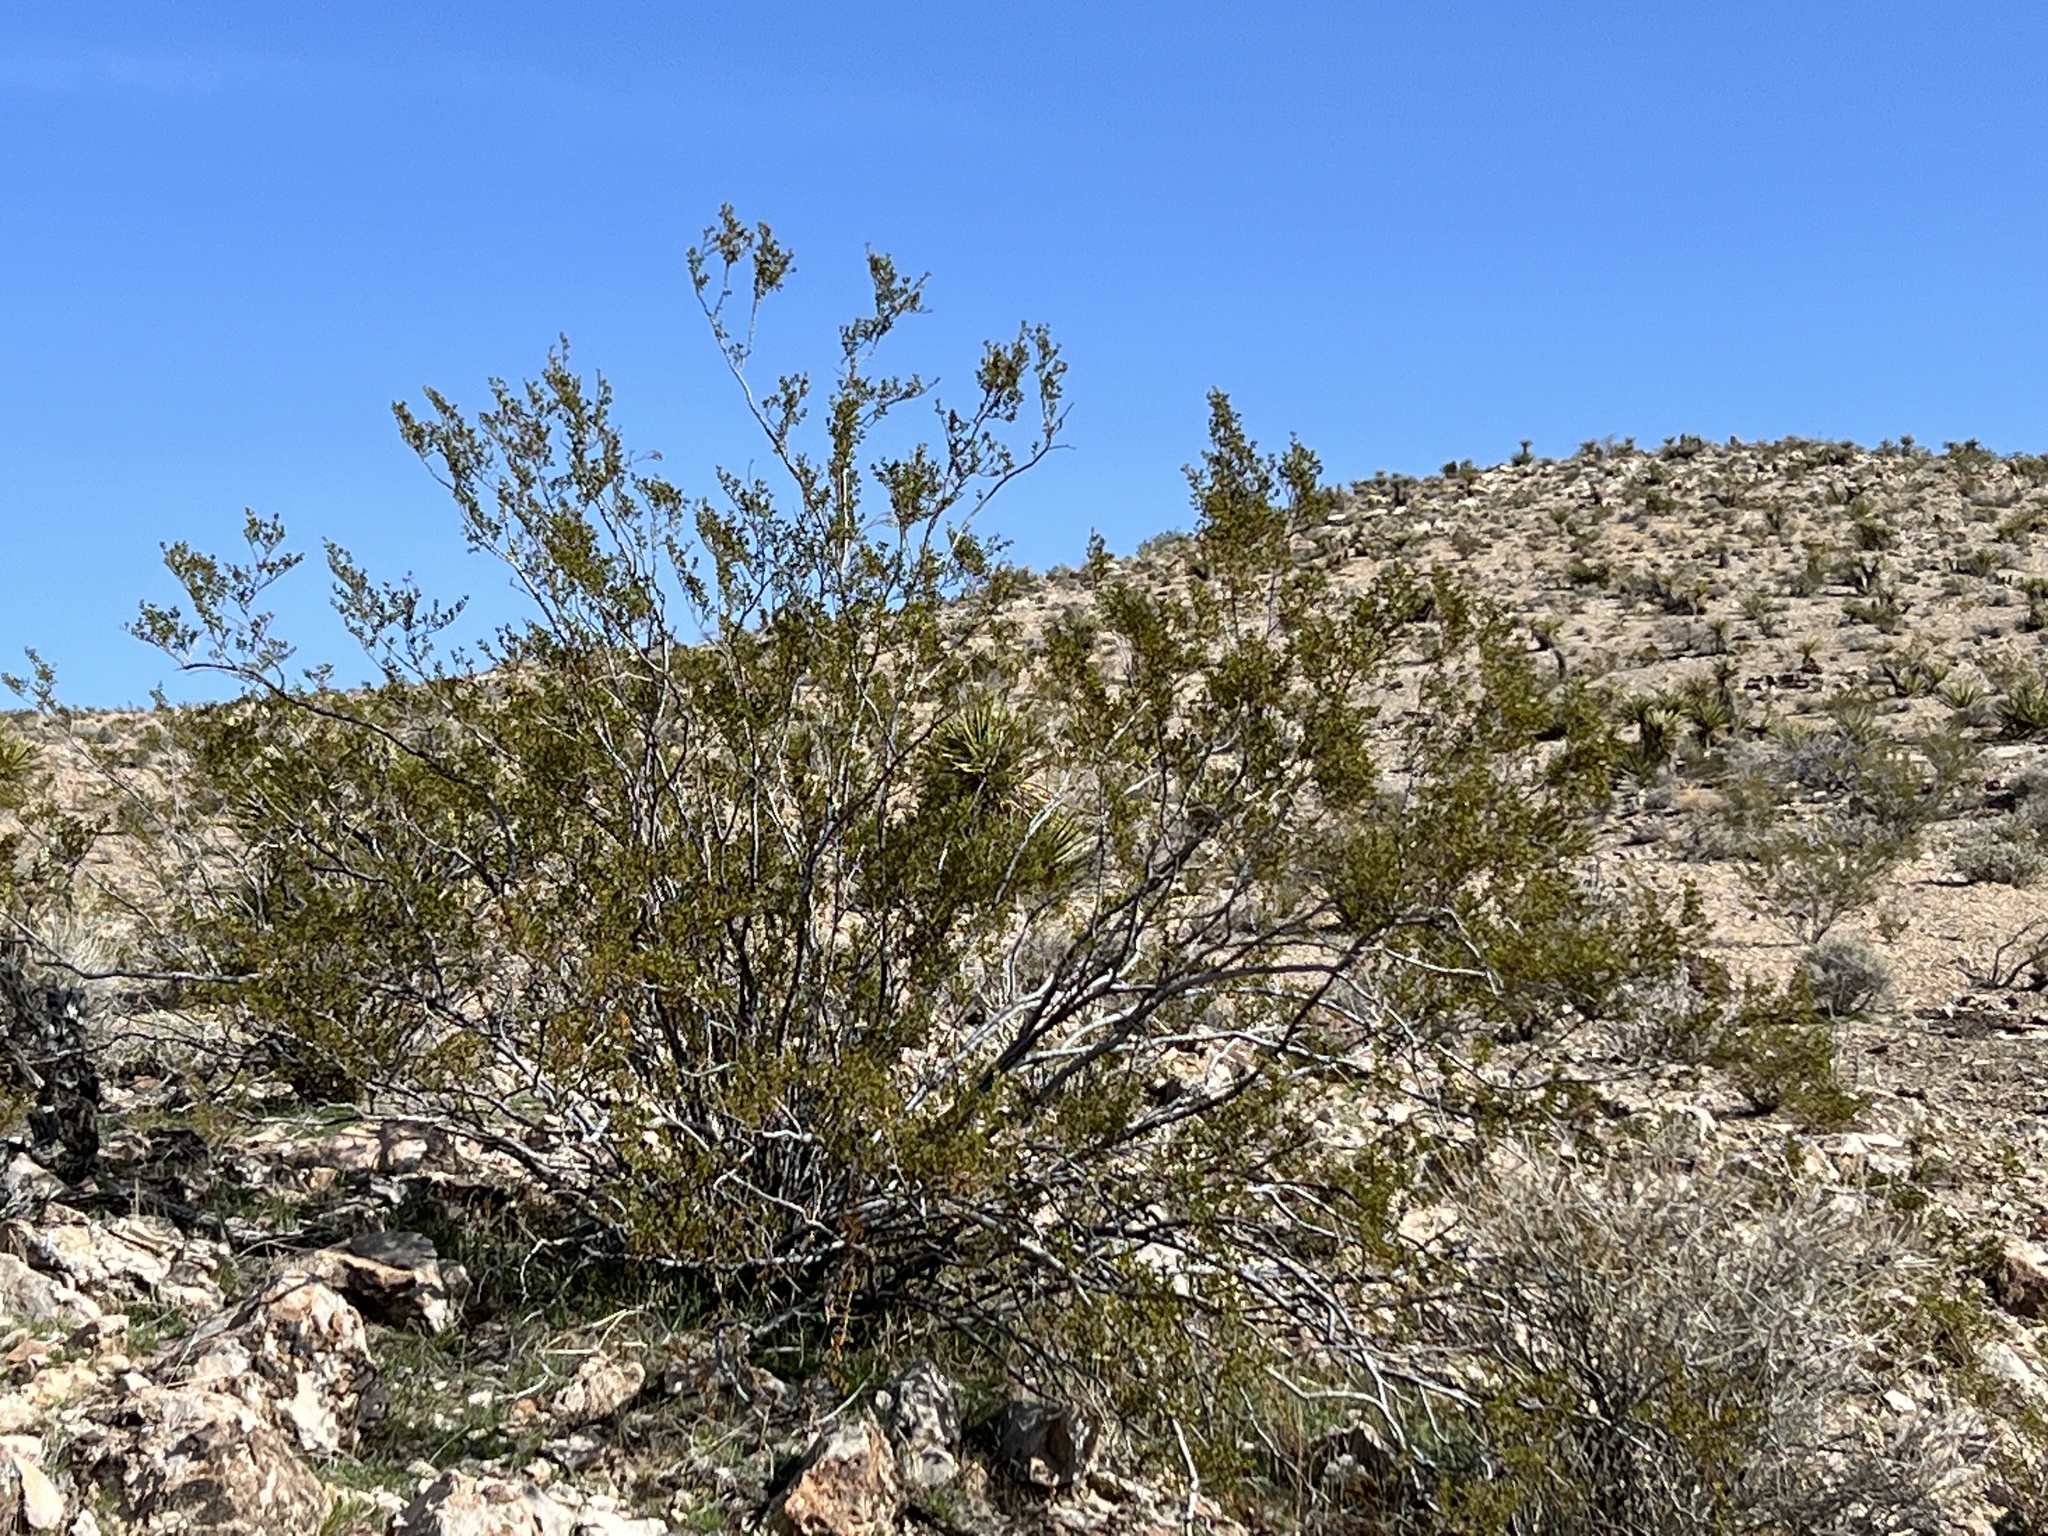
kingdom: Plantae
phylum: Tracheophyta
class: Magnoliopsida
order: Zygophyllales
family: Zygophyllaceae
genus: Larrea
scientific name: Larrea tridentata
